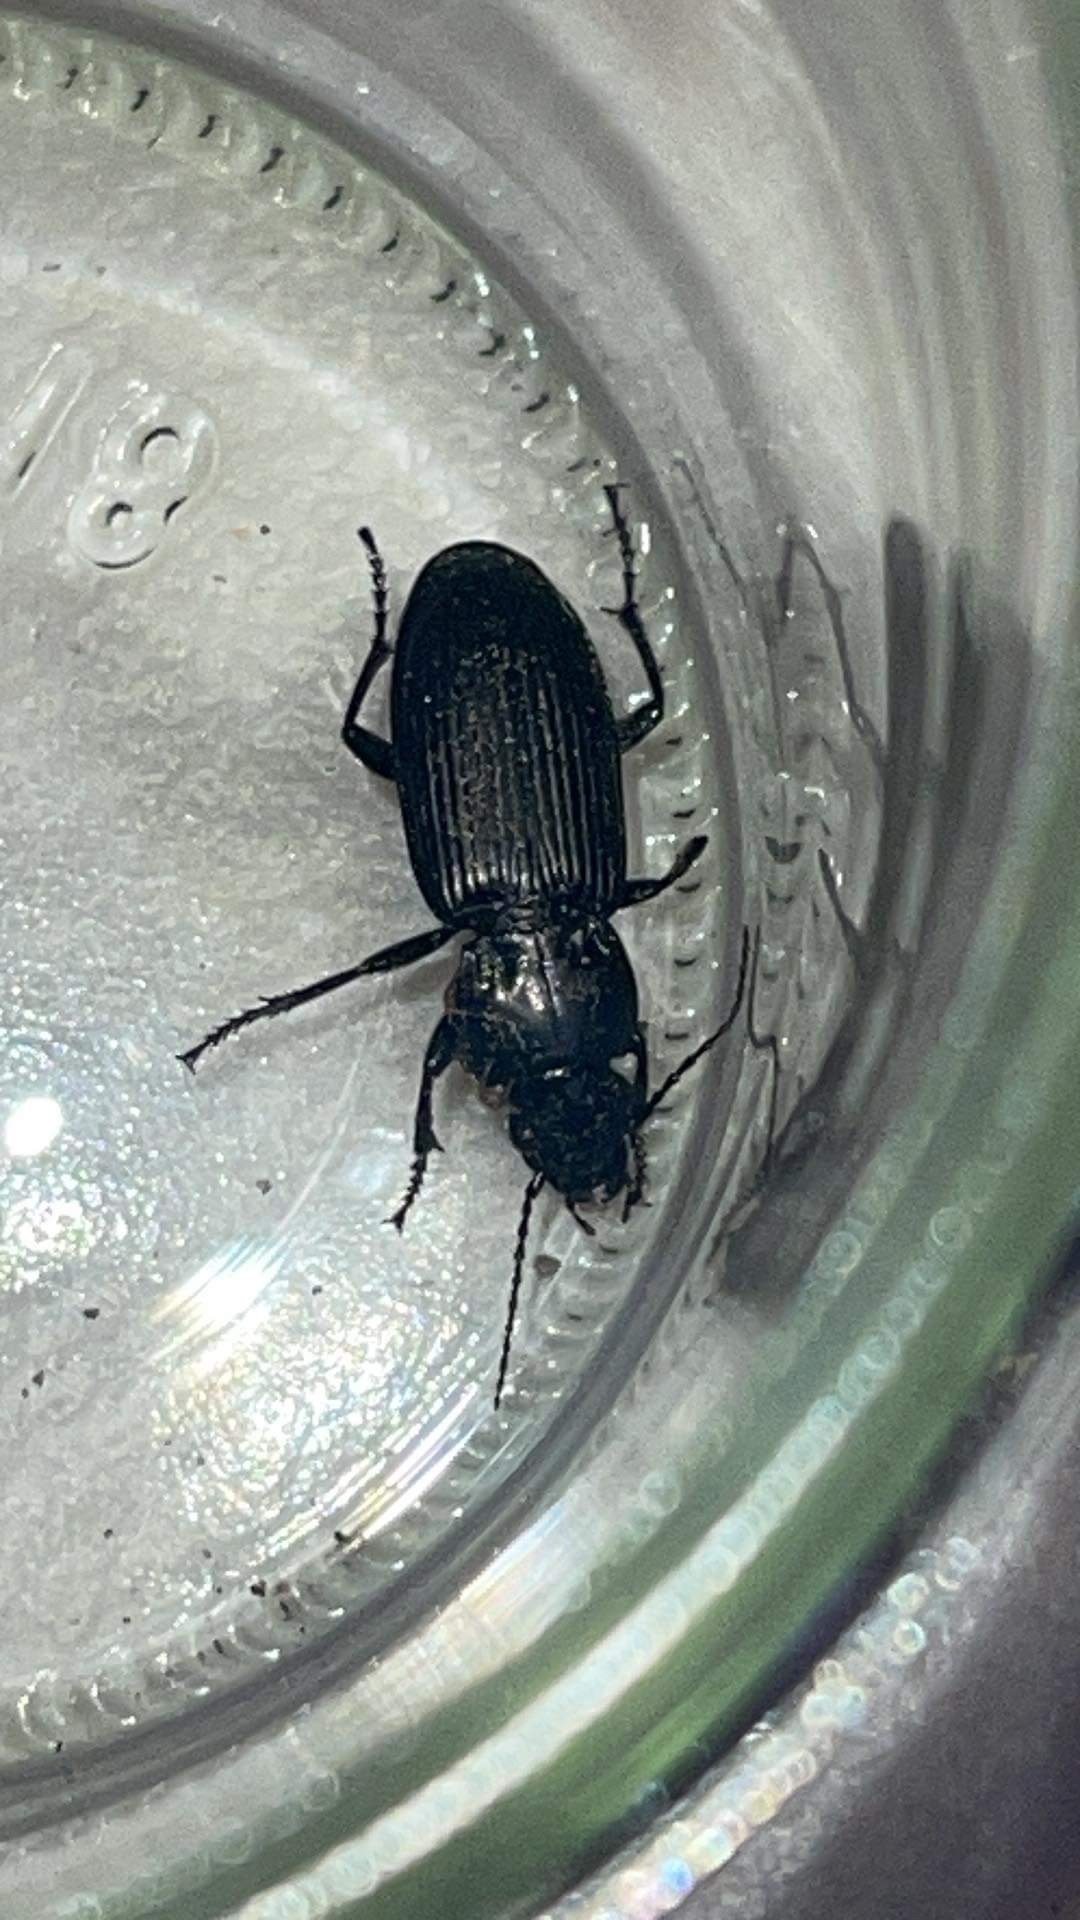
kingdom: Animalia
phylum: Arthropoda
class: Insecta
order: Coleoptera
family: Carabidae
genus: Pterostichus
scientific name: Pterostichus melanarius
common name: European dark harp ground beetle
